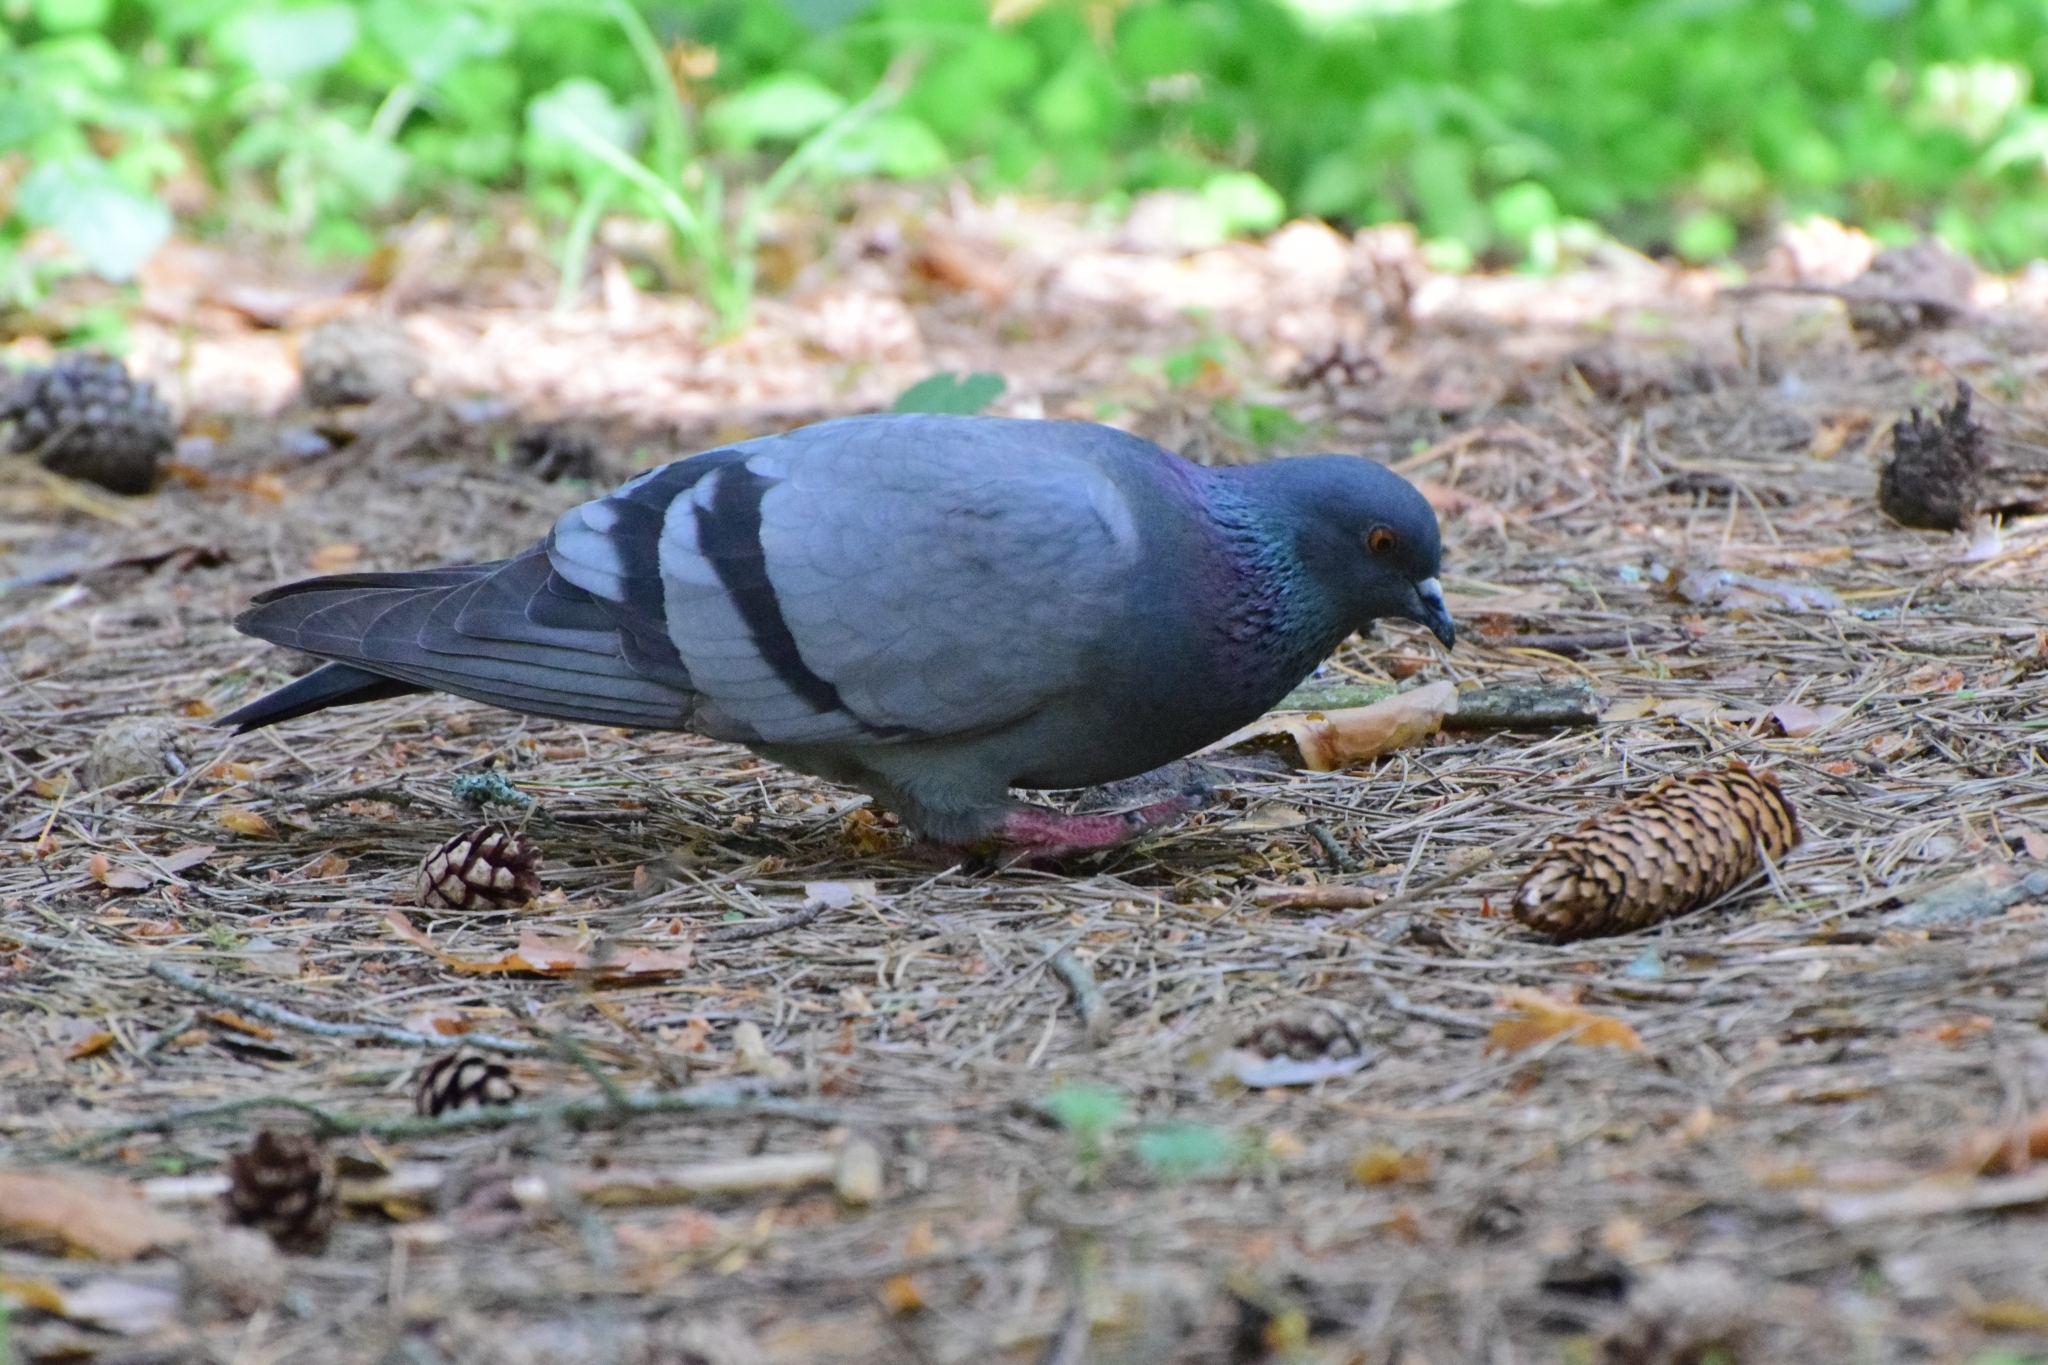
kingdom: Animalia
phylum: Chordata
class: Aves
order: Columbiformes
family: Columbidae
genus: Columba
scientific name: Columba livia
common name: Rock pigeon
